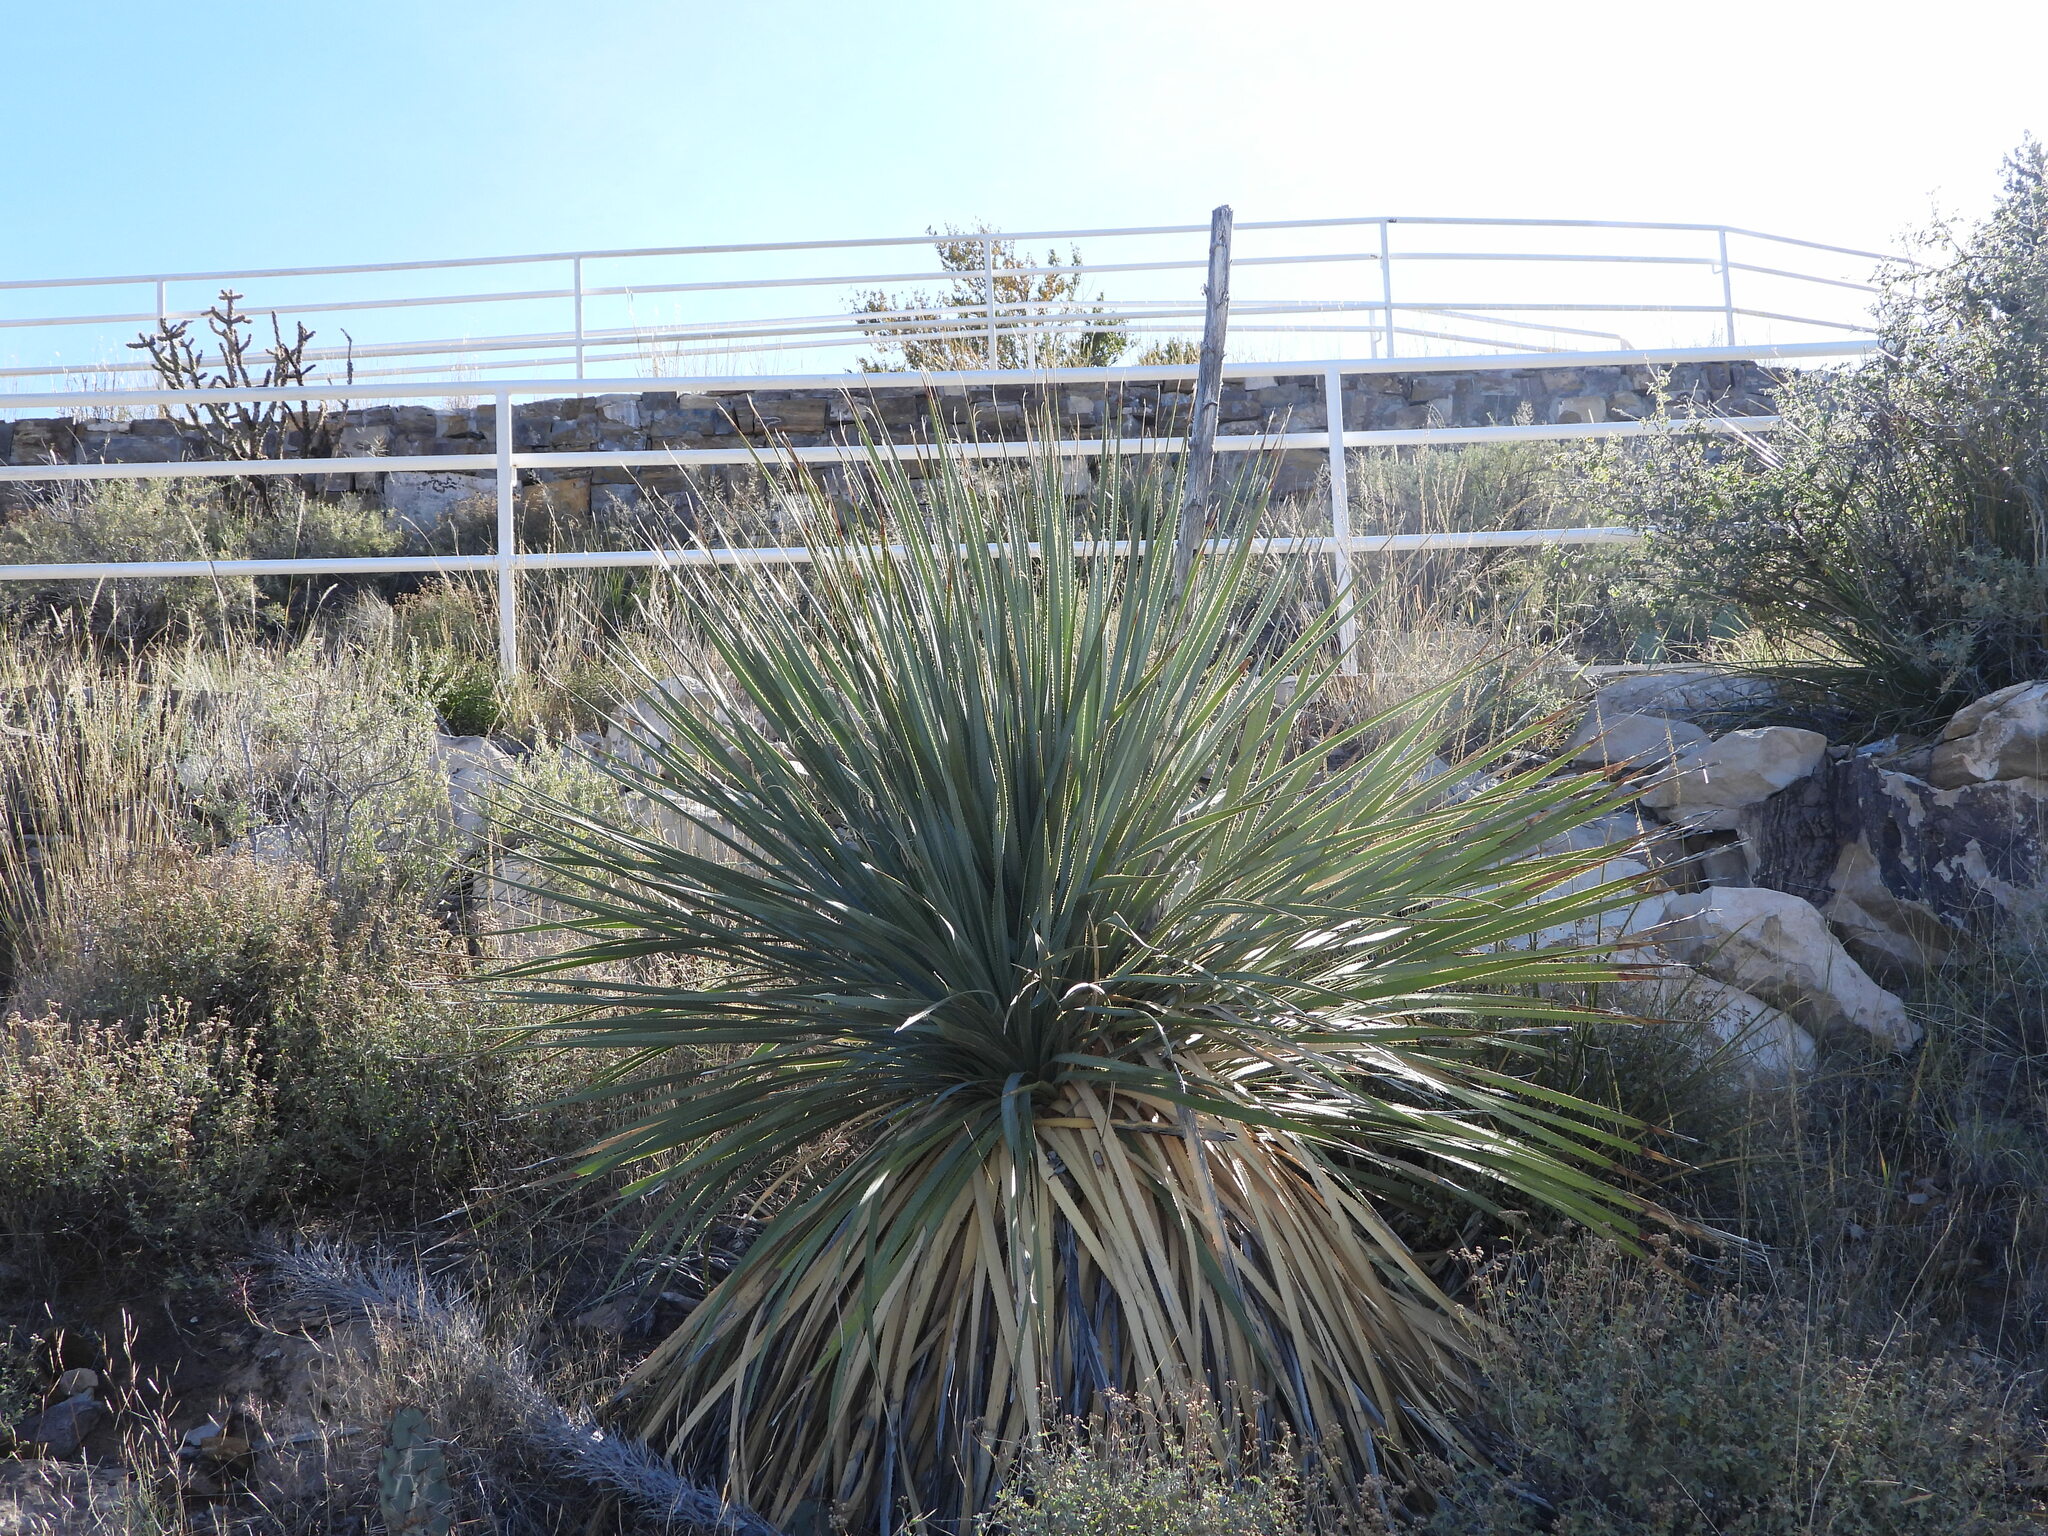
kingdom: Plantae
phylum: Tracheophyta
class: Liliopsida
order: Asparagales
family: Asparagaceae
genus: Dasylirion
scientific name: Dasylirion wheeleri
